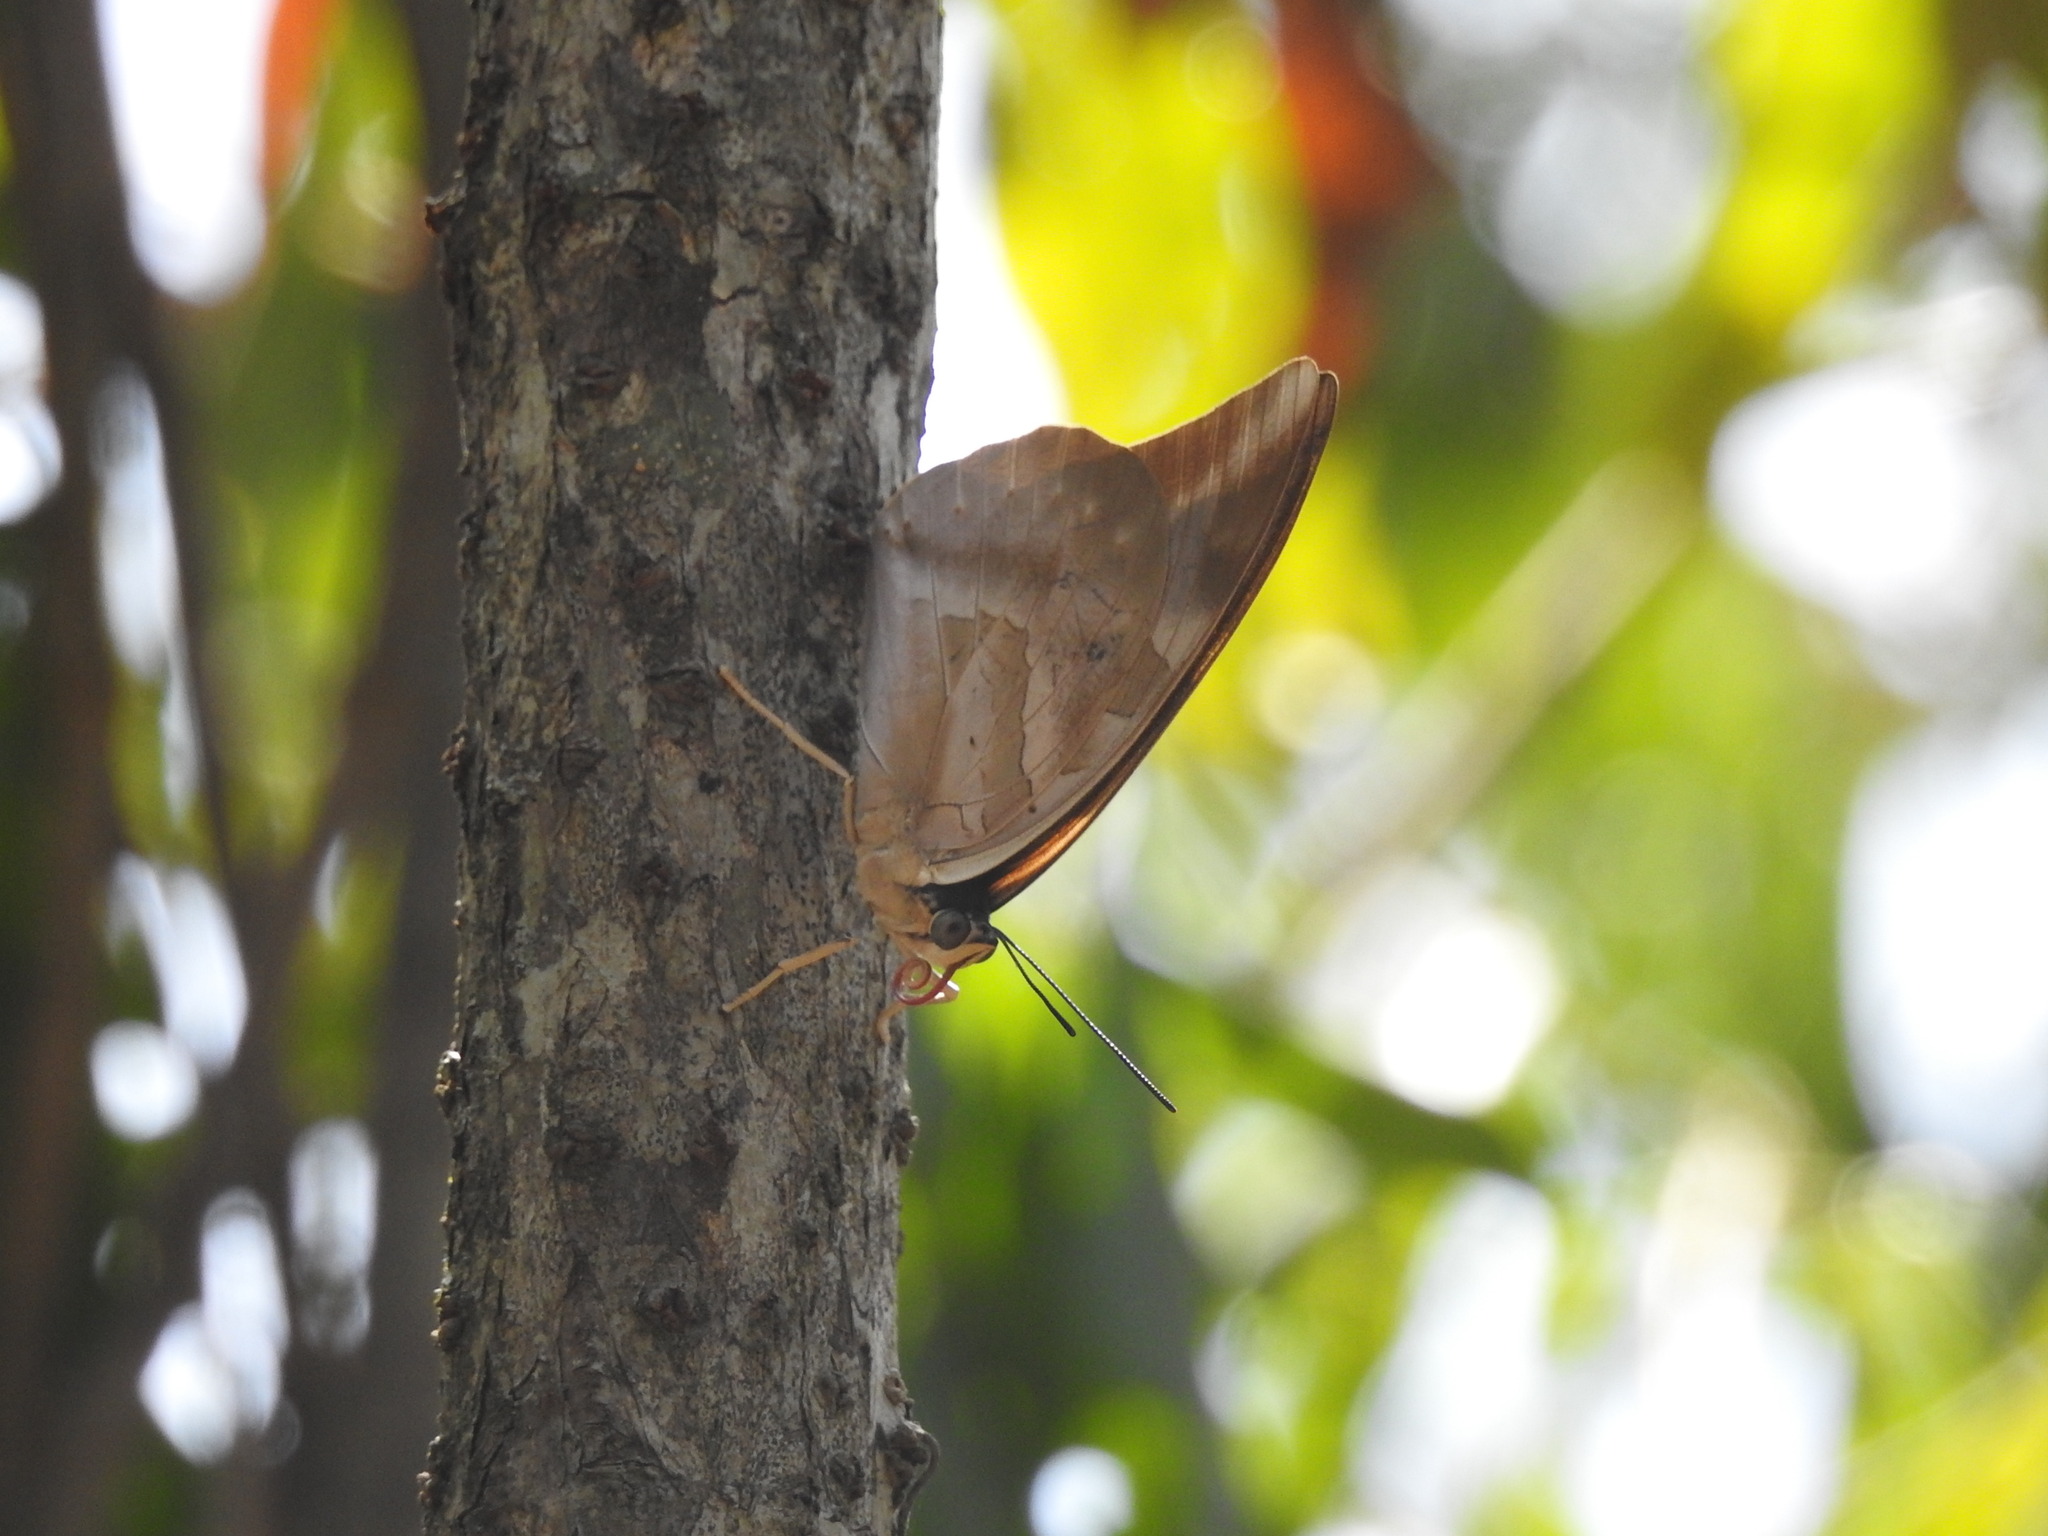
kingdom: Animalia
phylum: Arthropoda
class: Insecta
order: Lepidoptera
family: Nymphalidae
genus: Prepona
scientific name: Prepona demophon
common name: One-spotted prepona
